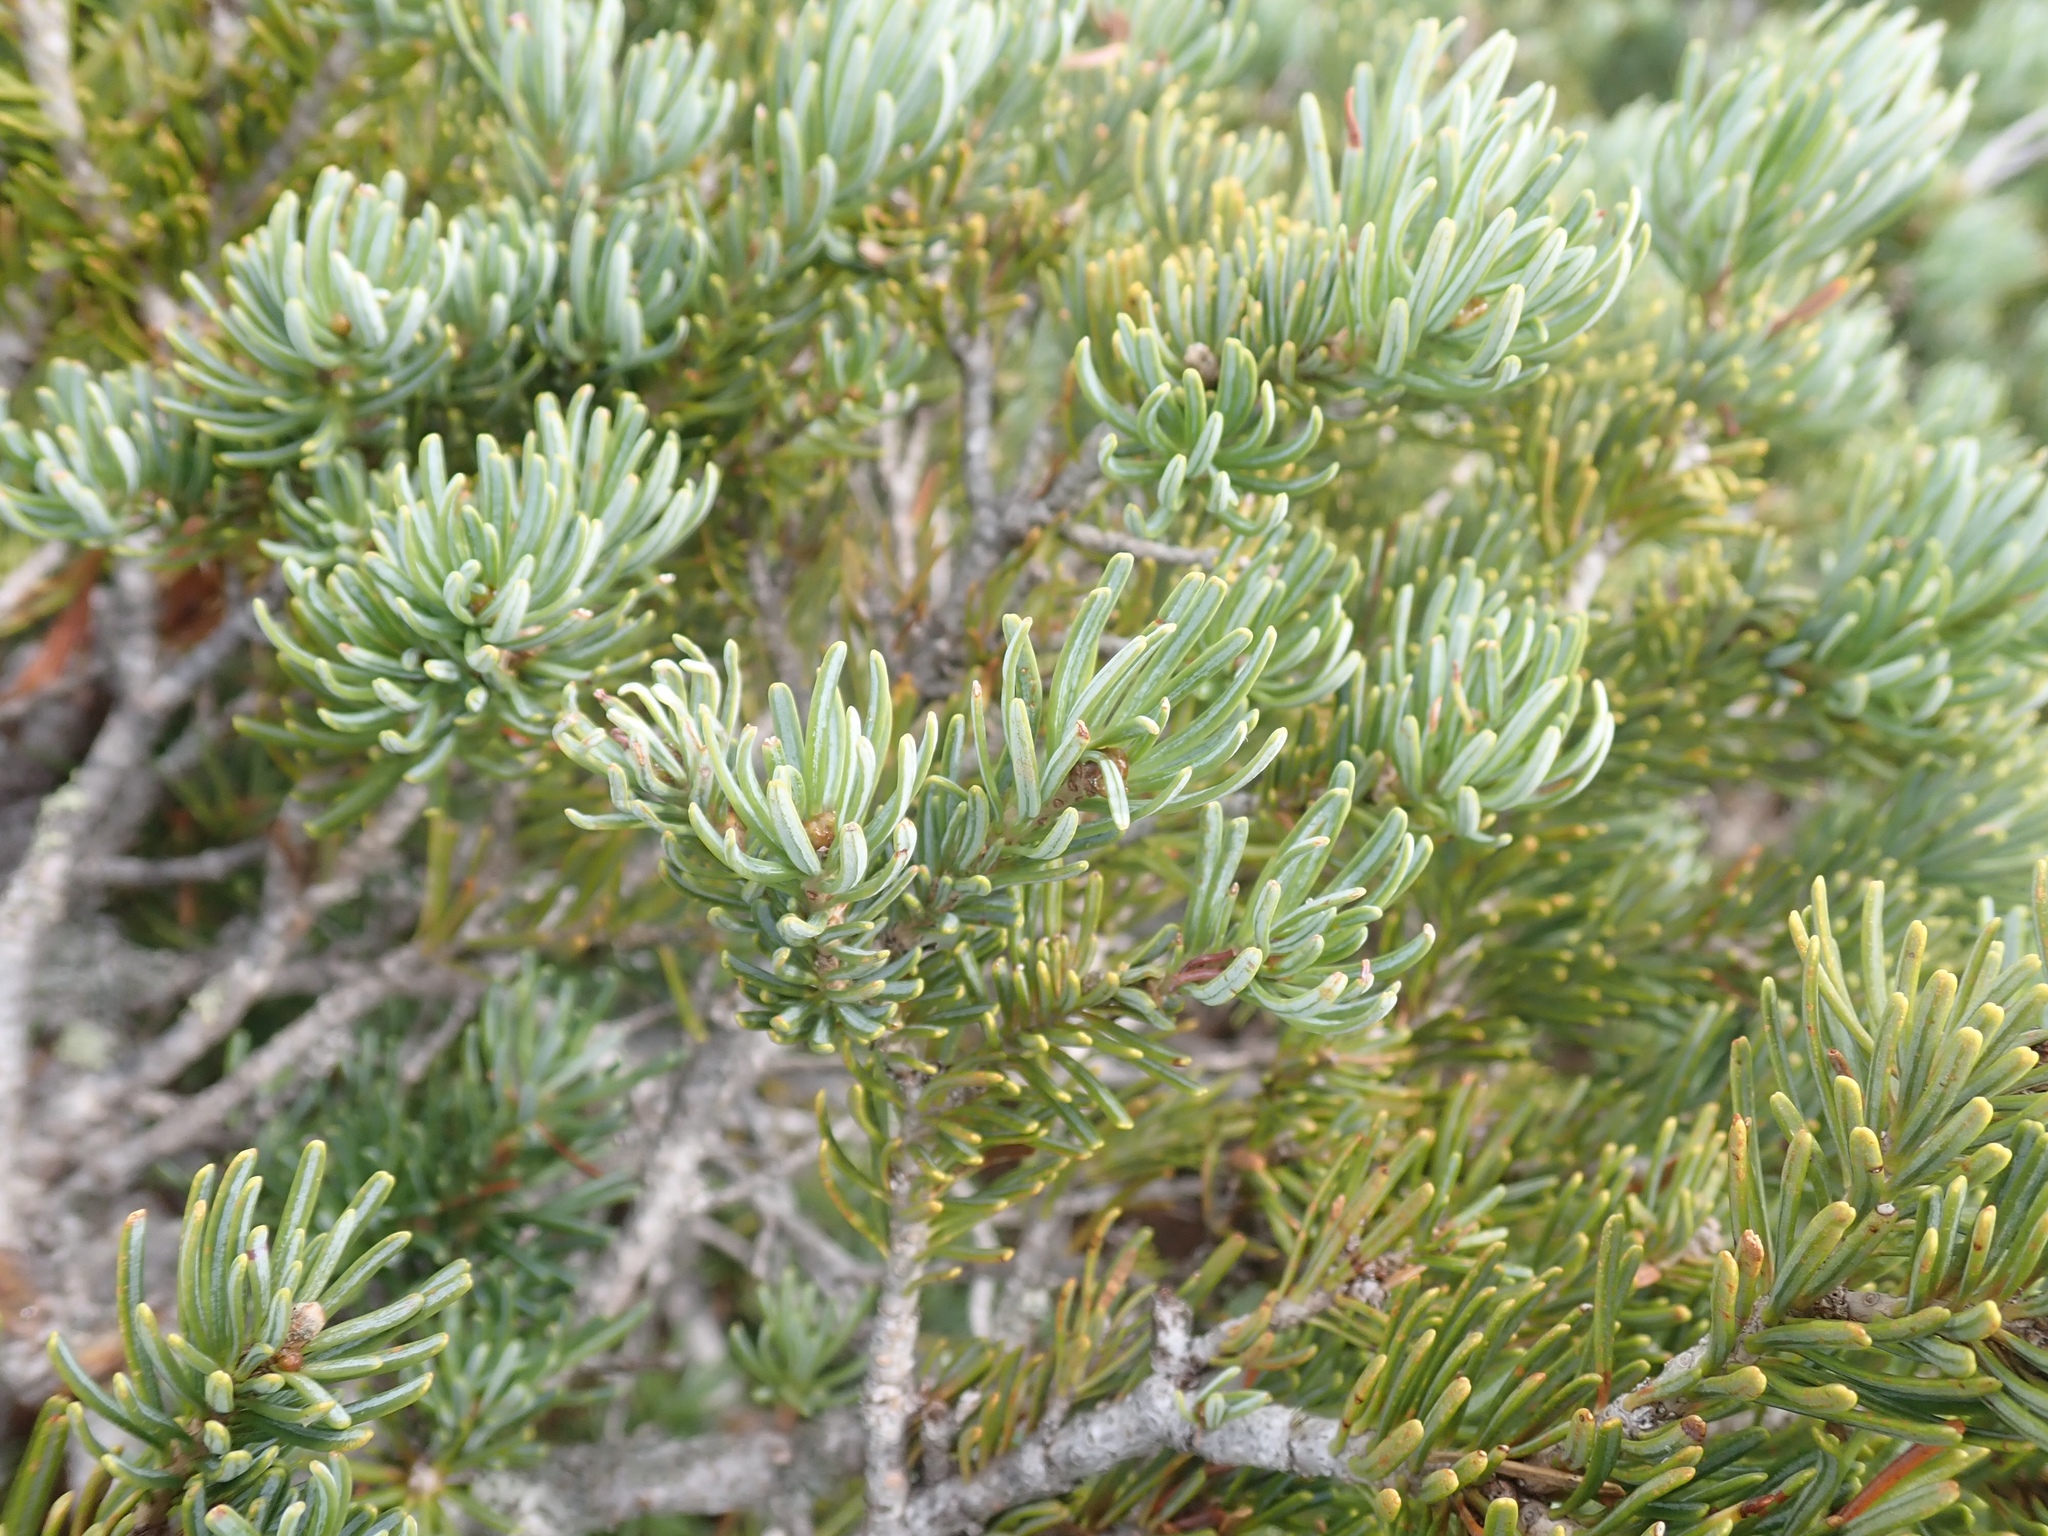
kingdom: Plantae
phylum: Tracheophyta
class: Pinopsida
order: Pinales
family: Pinaceae
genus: Abies
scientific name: Abies lasiocarpa
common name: Subalpine fir
